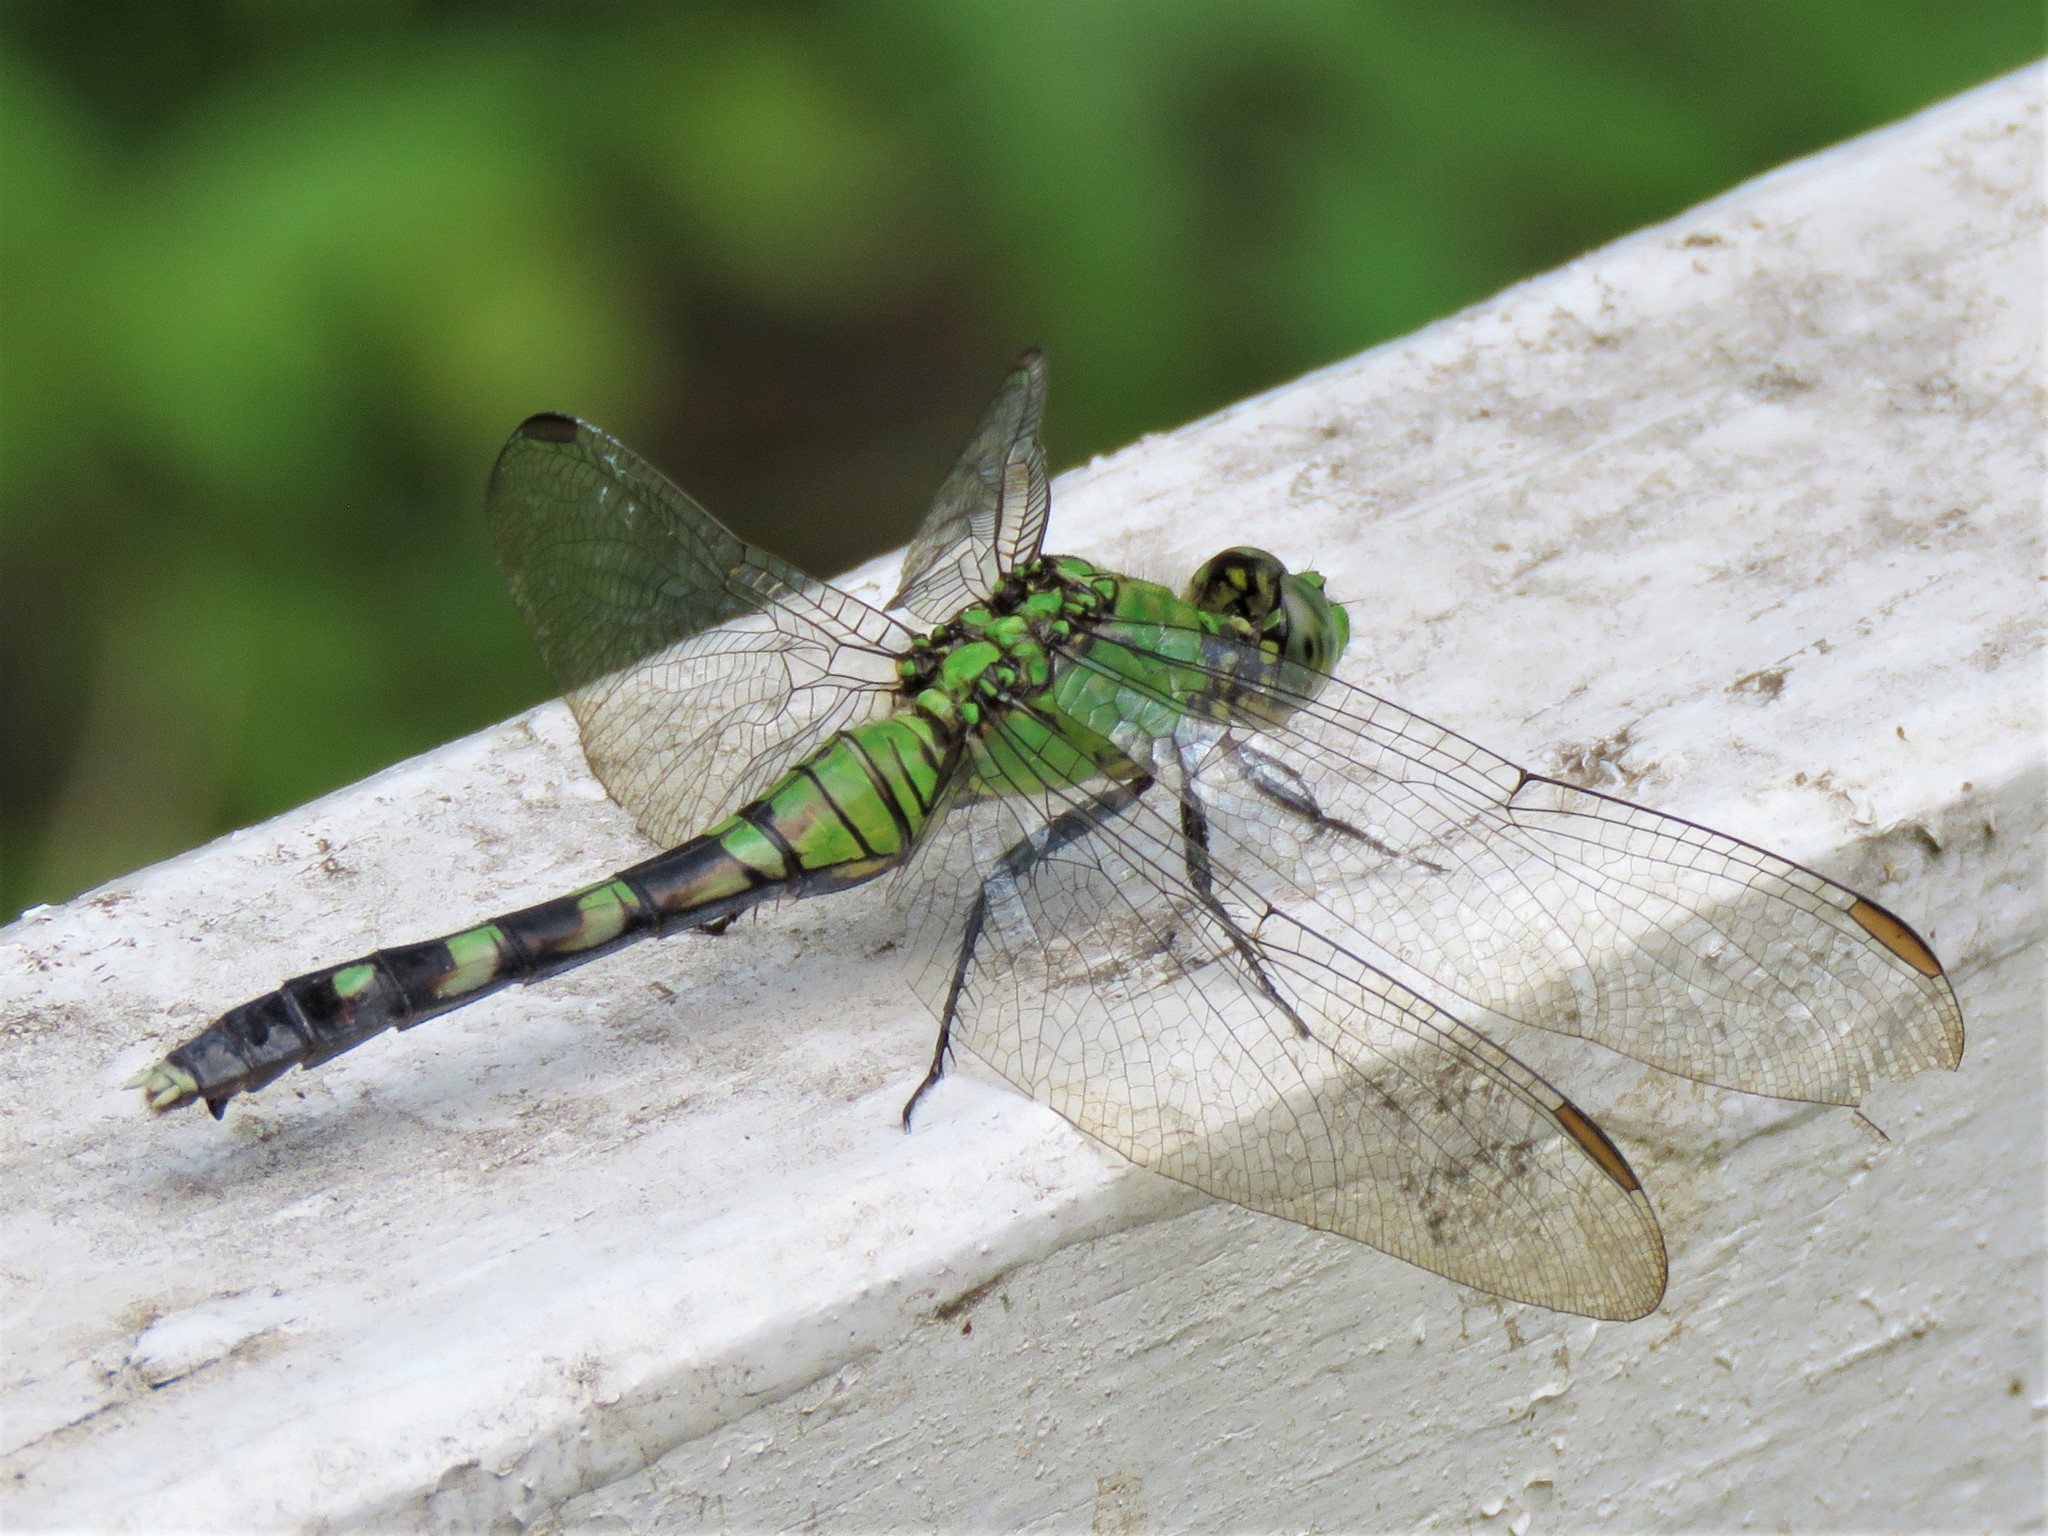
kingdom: Animalia
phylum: Arthropoda
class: Insecta
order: Odonata
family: Libellulidae
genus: Erythemis
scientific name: Erythemis simplicicollis
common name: Eastern pondhawk
